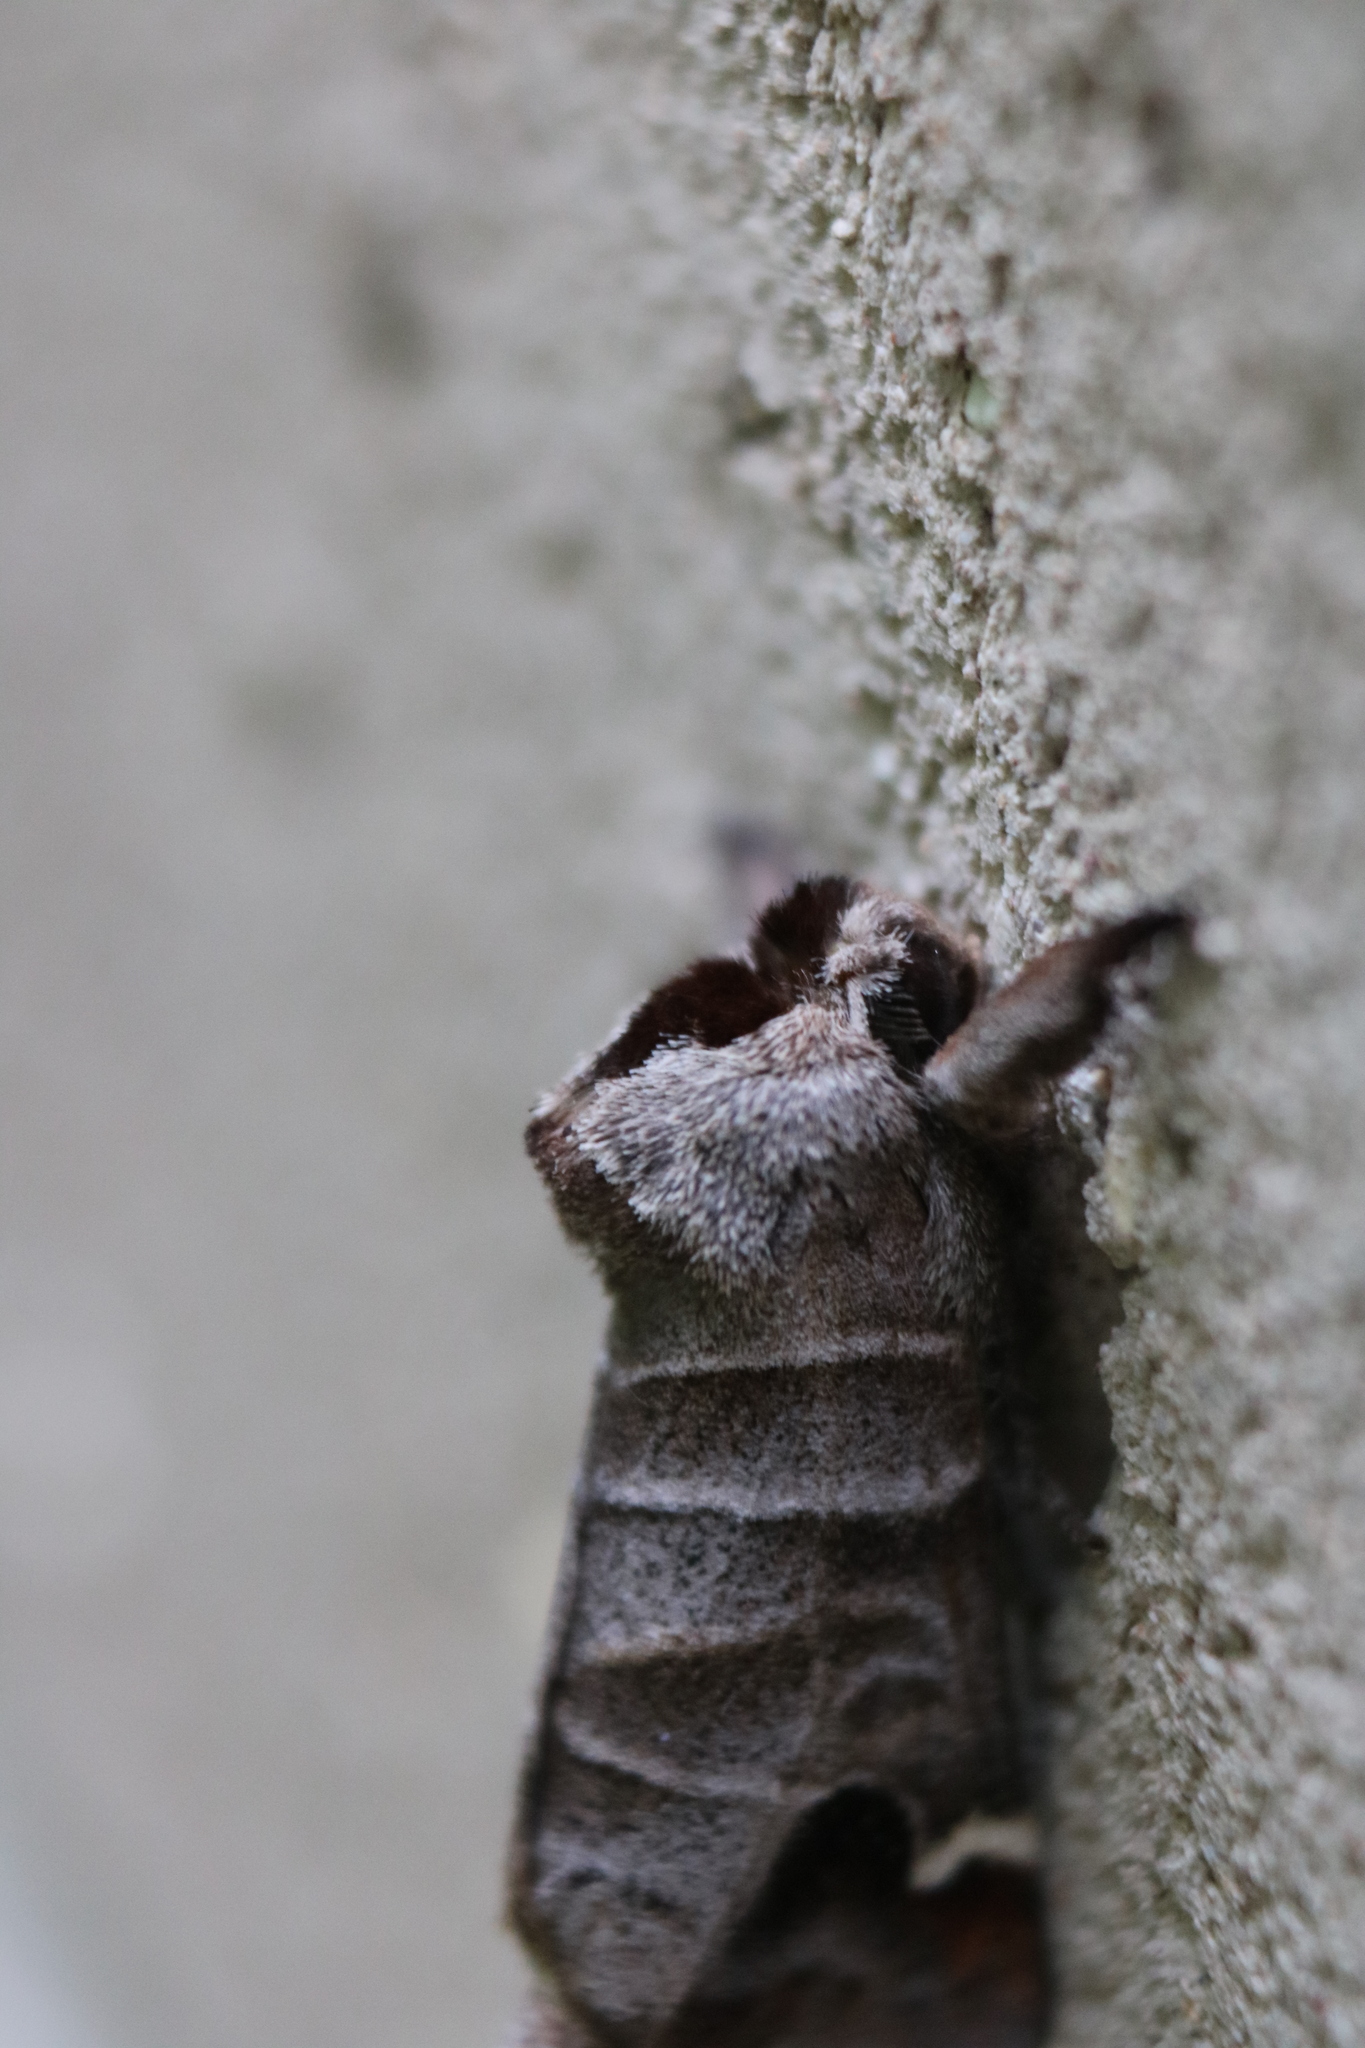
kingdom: Animalia
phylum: Arthropoda
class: Insecta
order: Lepidoptera
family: Notodontidae
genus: Clostera
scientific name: Clostera albosigma
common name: Sigmoid prominent
